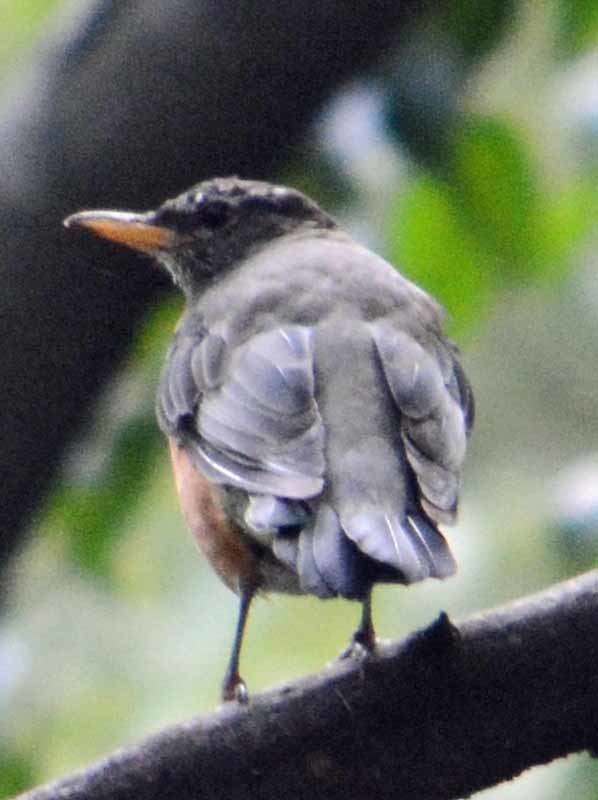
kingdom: Animalia
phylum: Chordata
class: Aves
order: Passeriformes
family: Turdidae
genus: Turdus
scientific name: Turdus migratorius
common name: American robin
